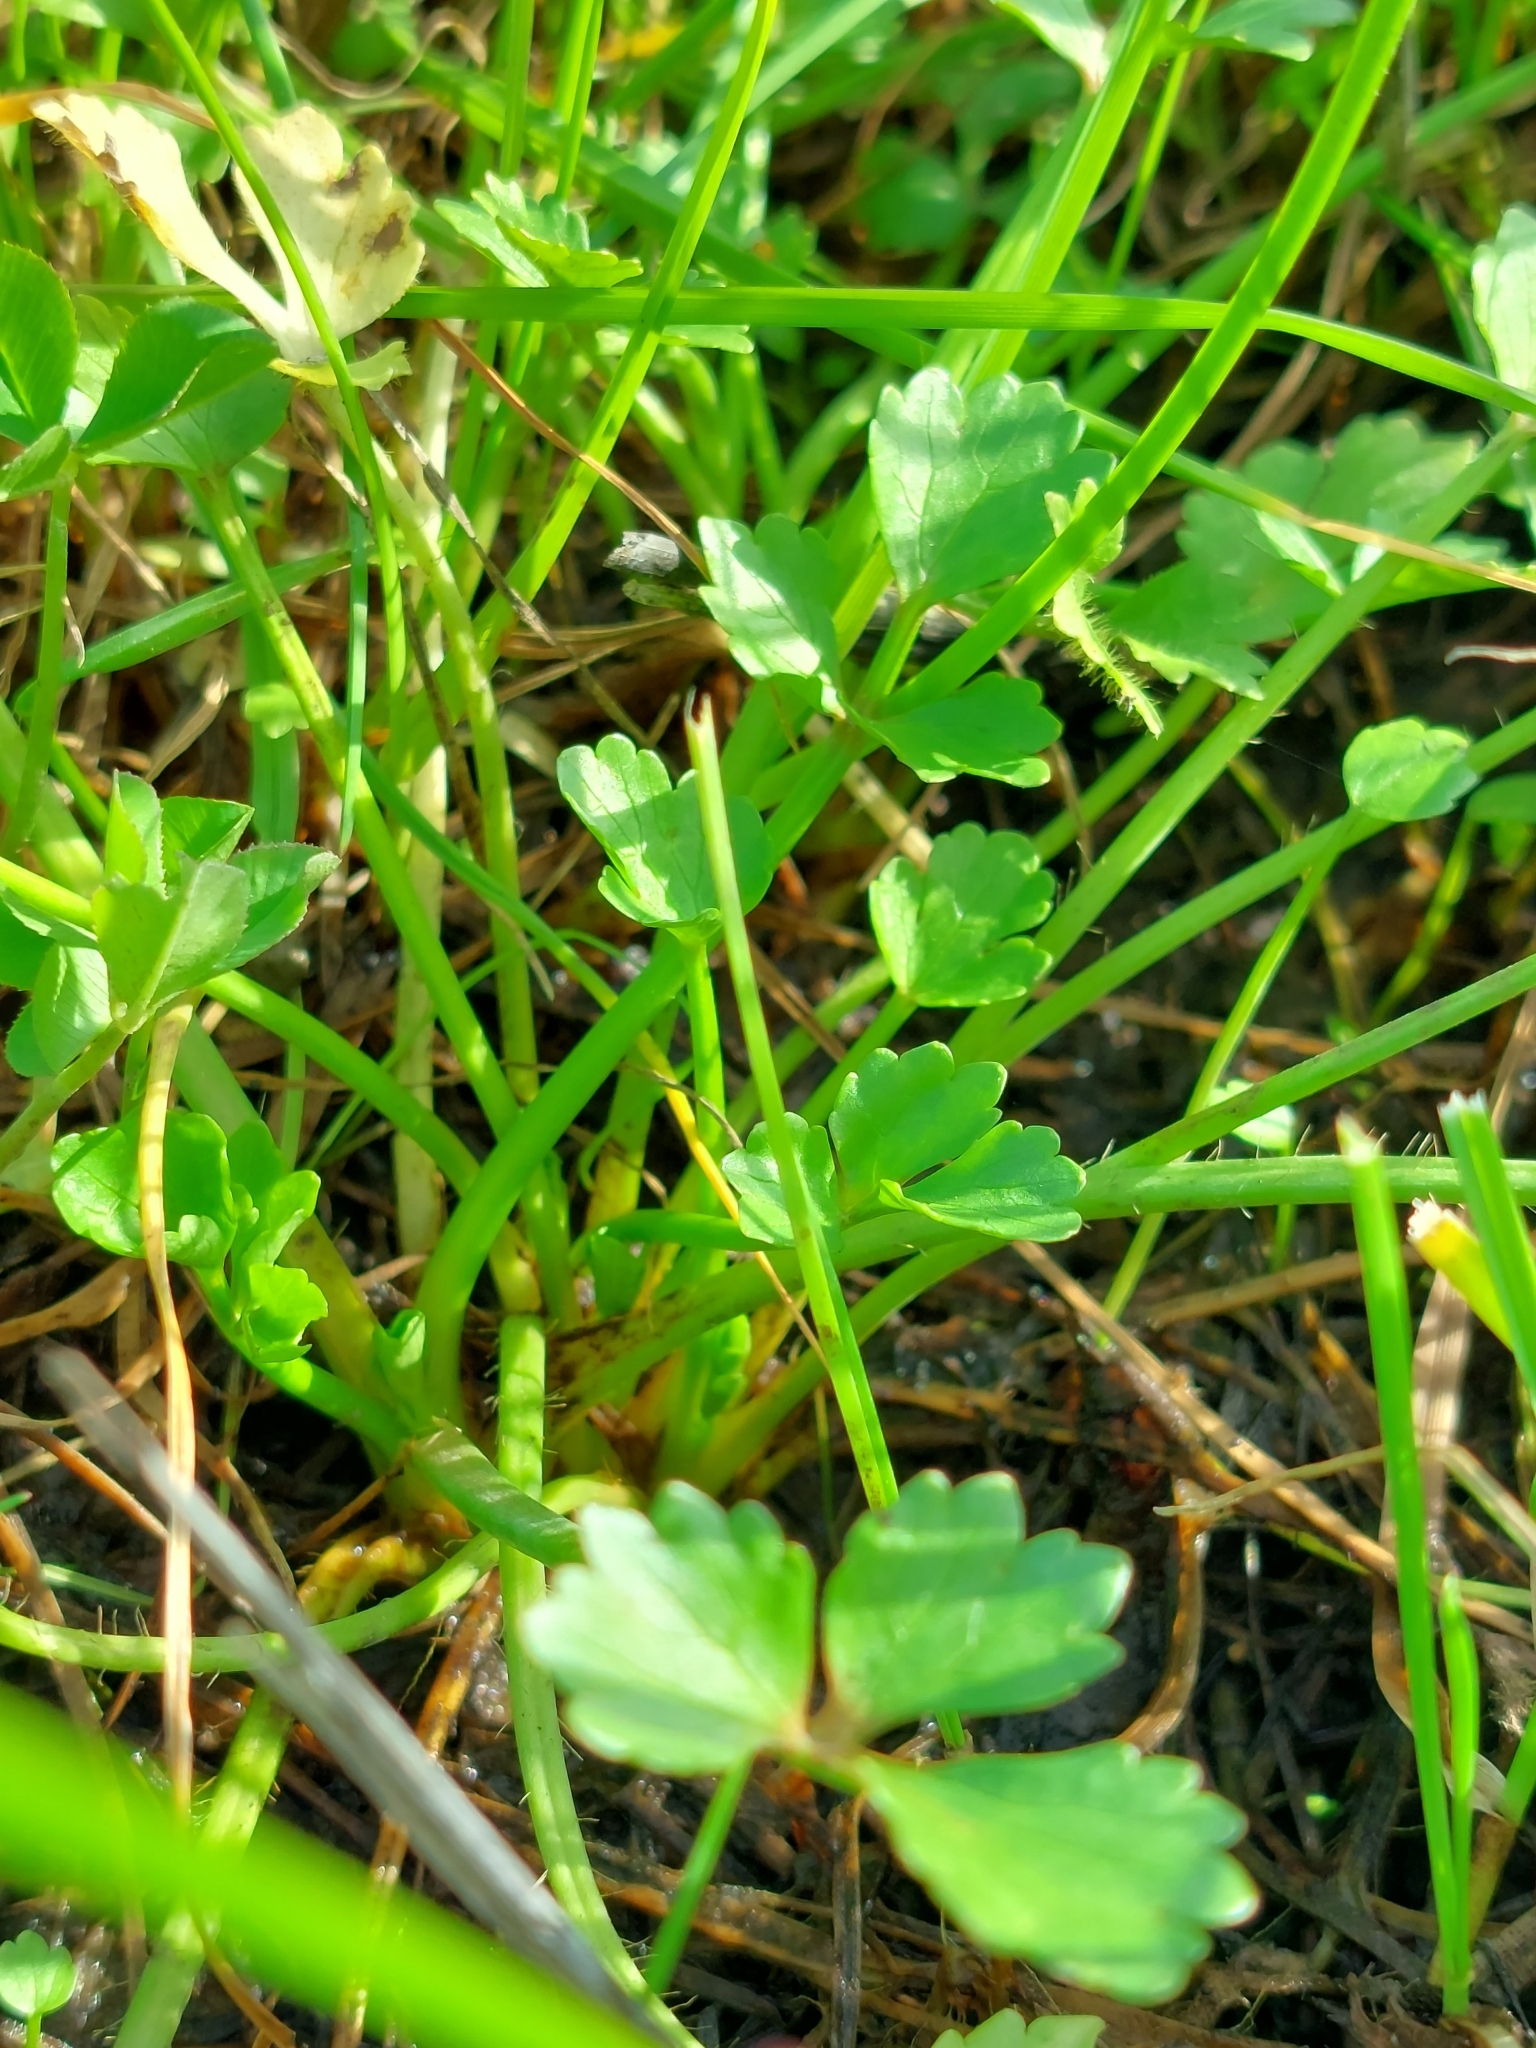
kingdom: Plantae
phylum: Tracheophyta
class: Magnoliopsida
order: Ranunculales
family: Ranunculaceae
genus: Ranunculus
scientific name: Ranunculus sceleratus
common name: Celery-leaved buttercup
